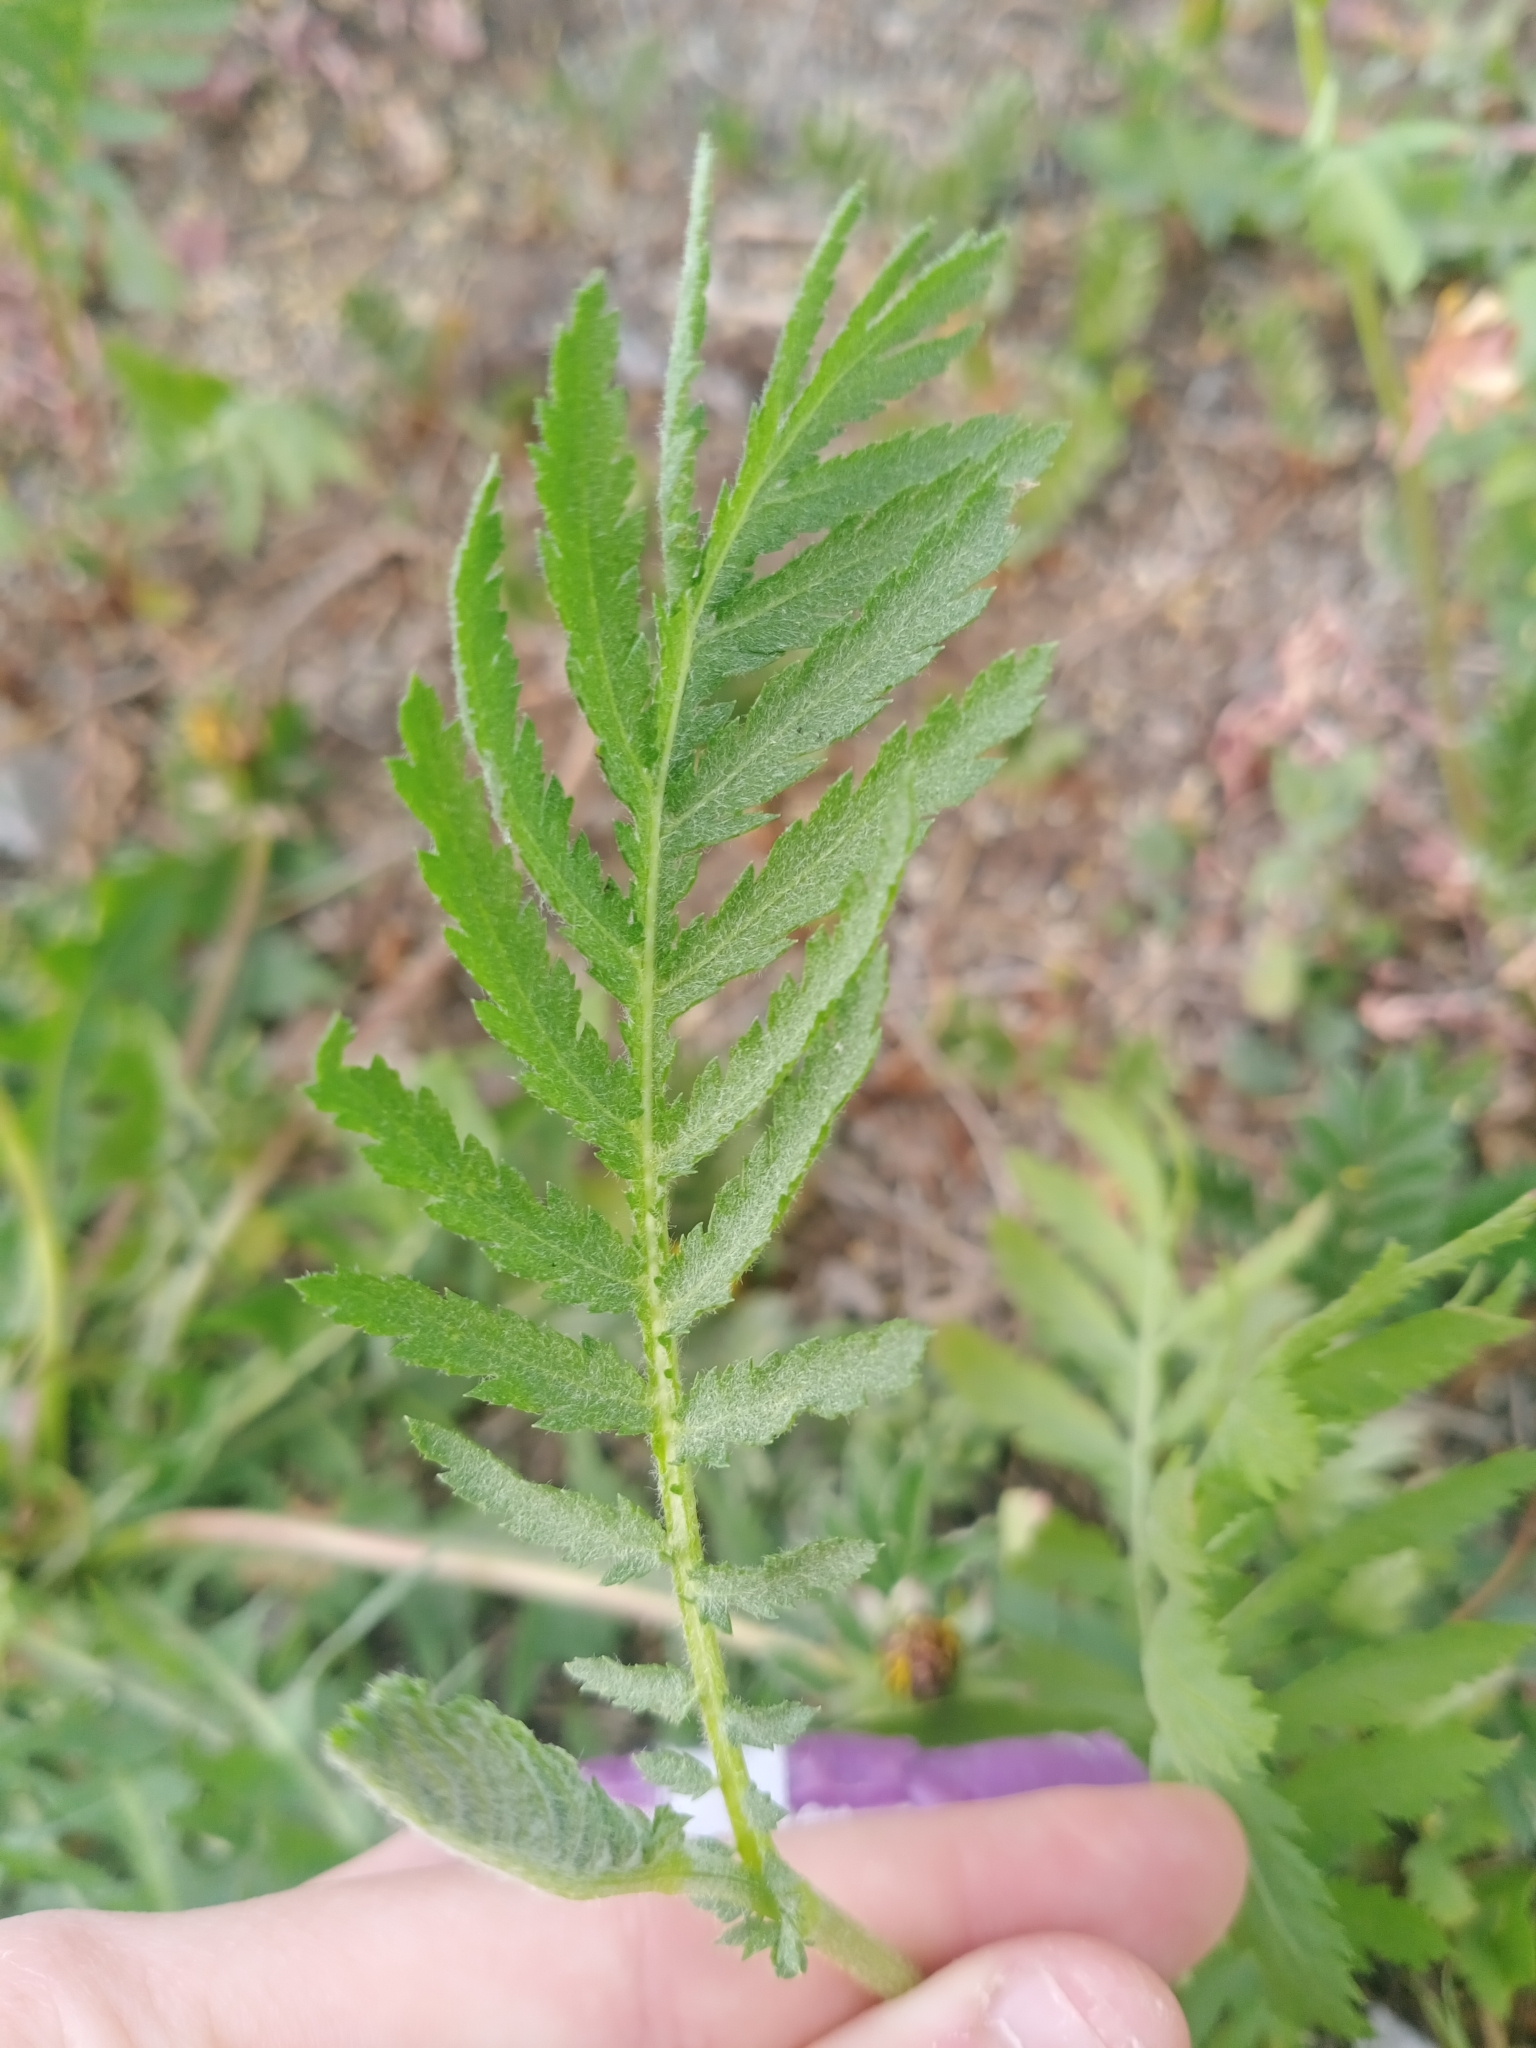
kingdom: Plantae
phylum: Tracheophyta
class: Magnoliopsida
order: Asterales
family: Asteraceae
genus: Tanacetum
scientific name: Tanacetum vulgare
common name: Common tansy
